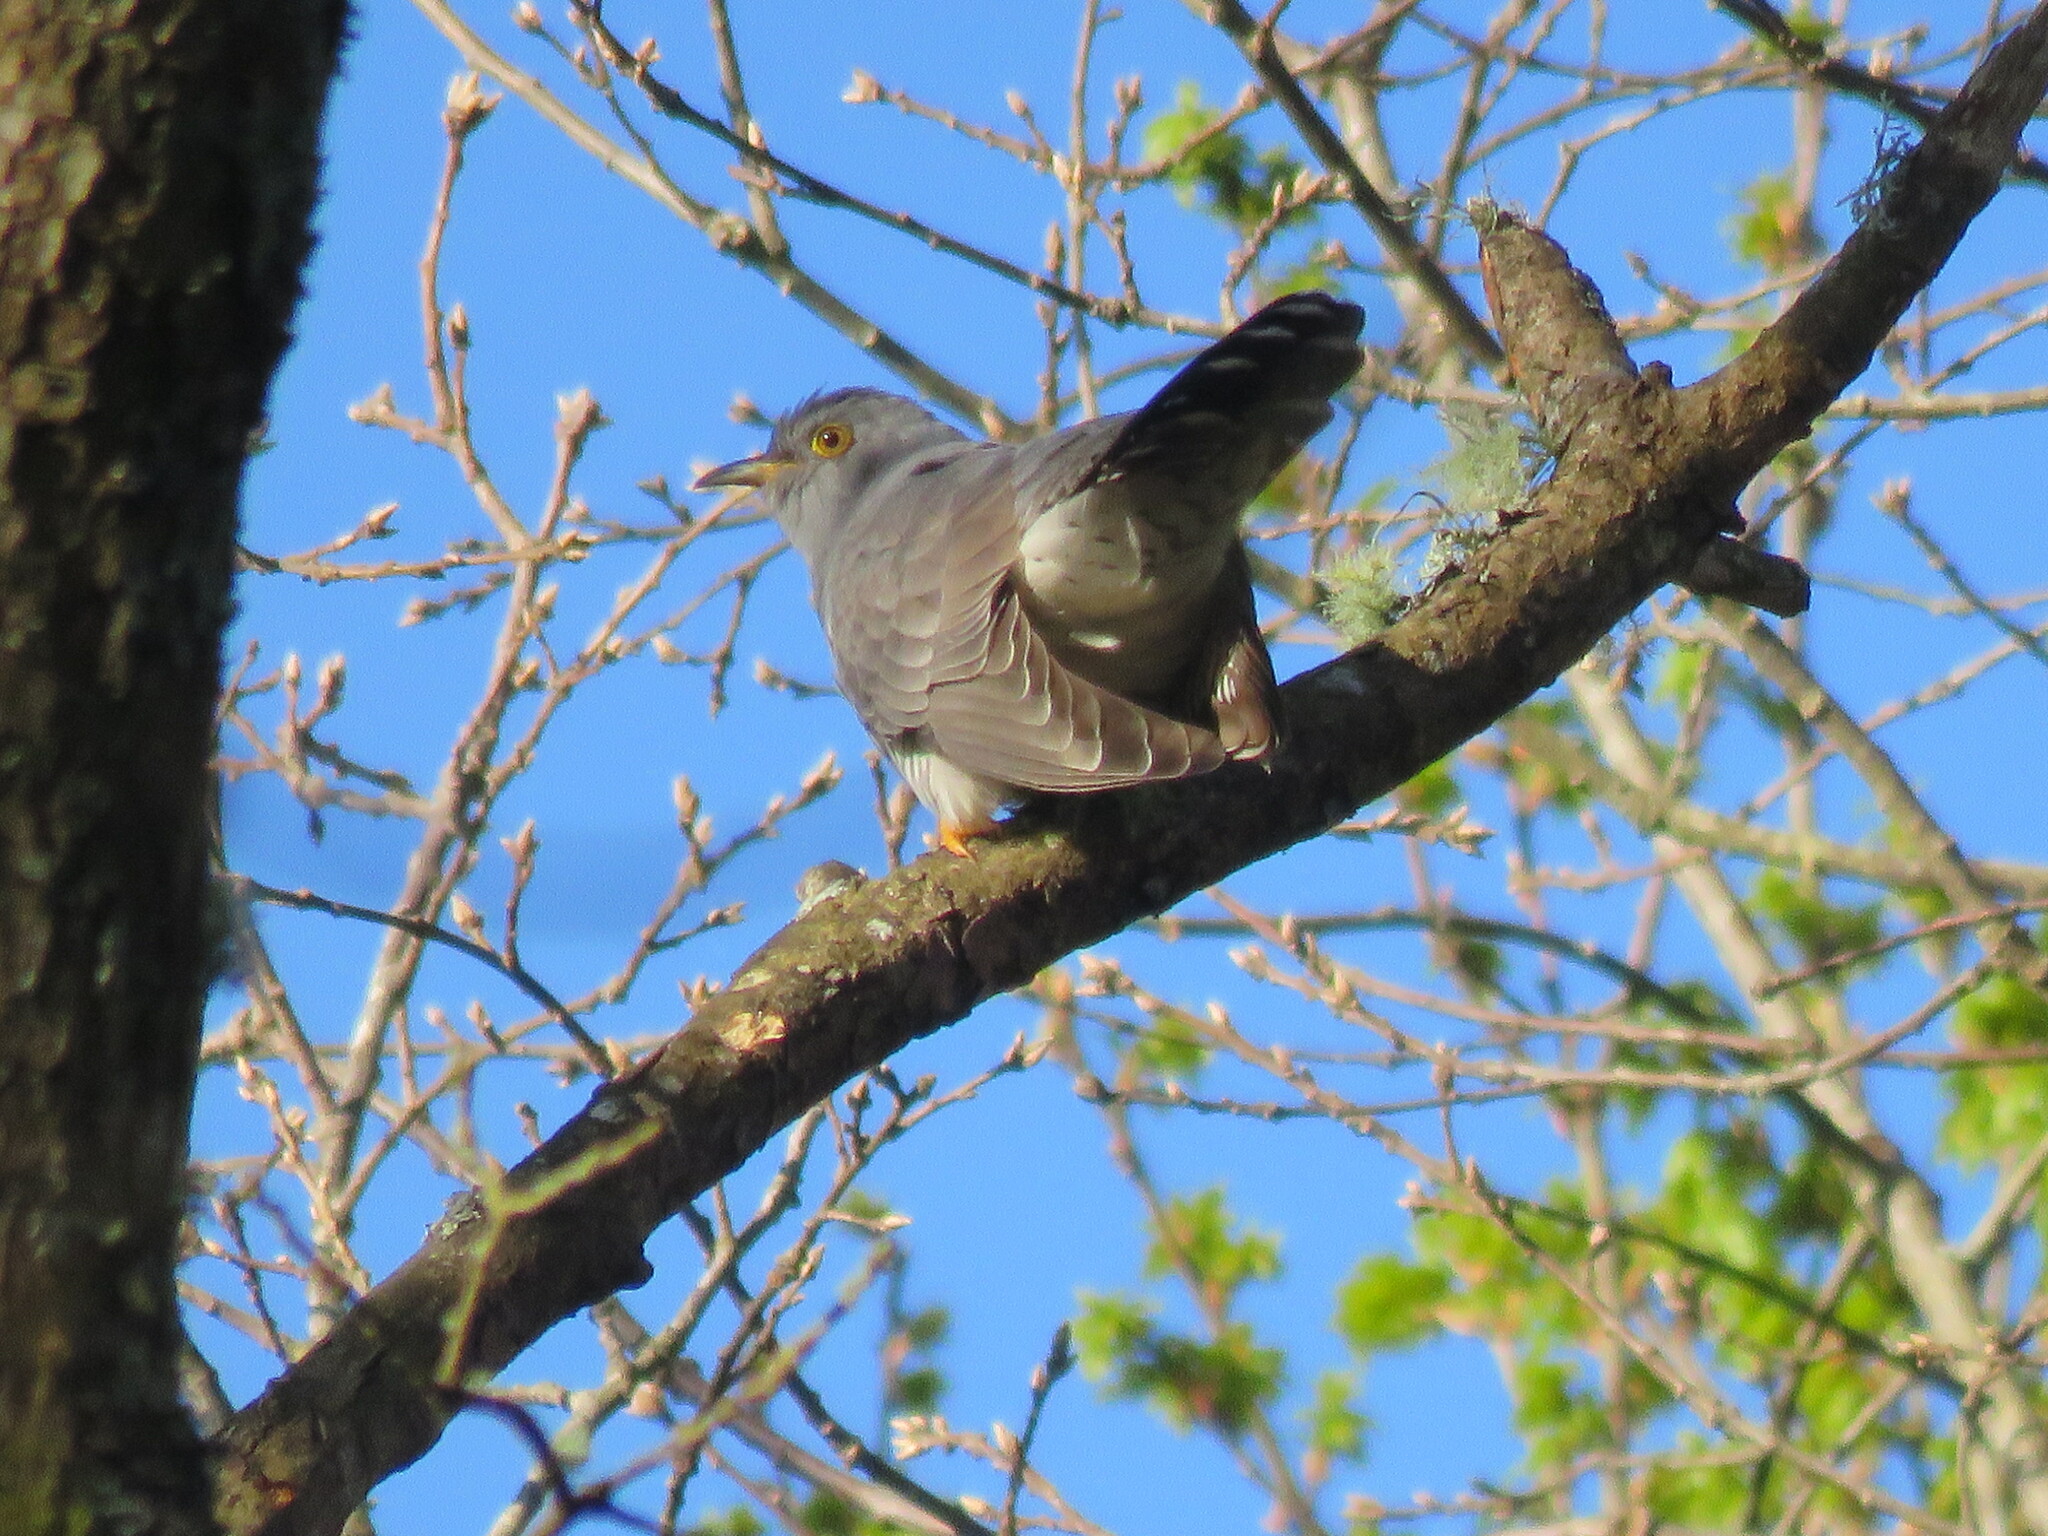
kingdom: Animalia
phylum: Chordata
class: Aves
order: Cuculiformes
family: Cuculidae
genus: Cuculus
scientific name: Cuculus canorus
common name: Common cuckoo
